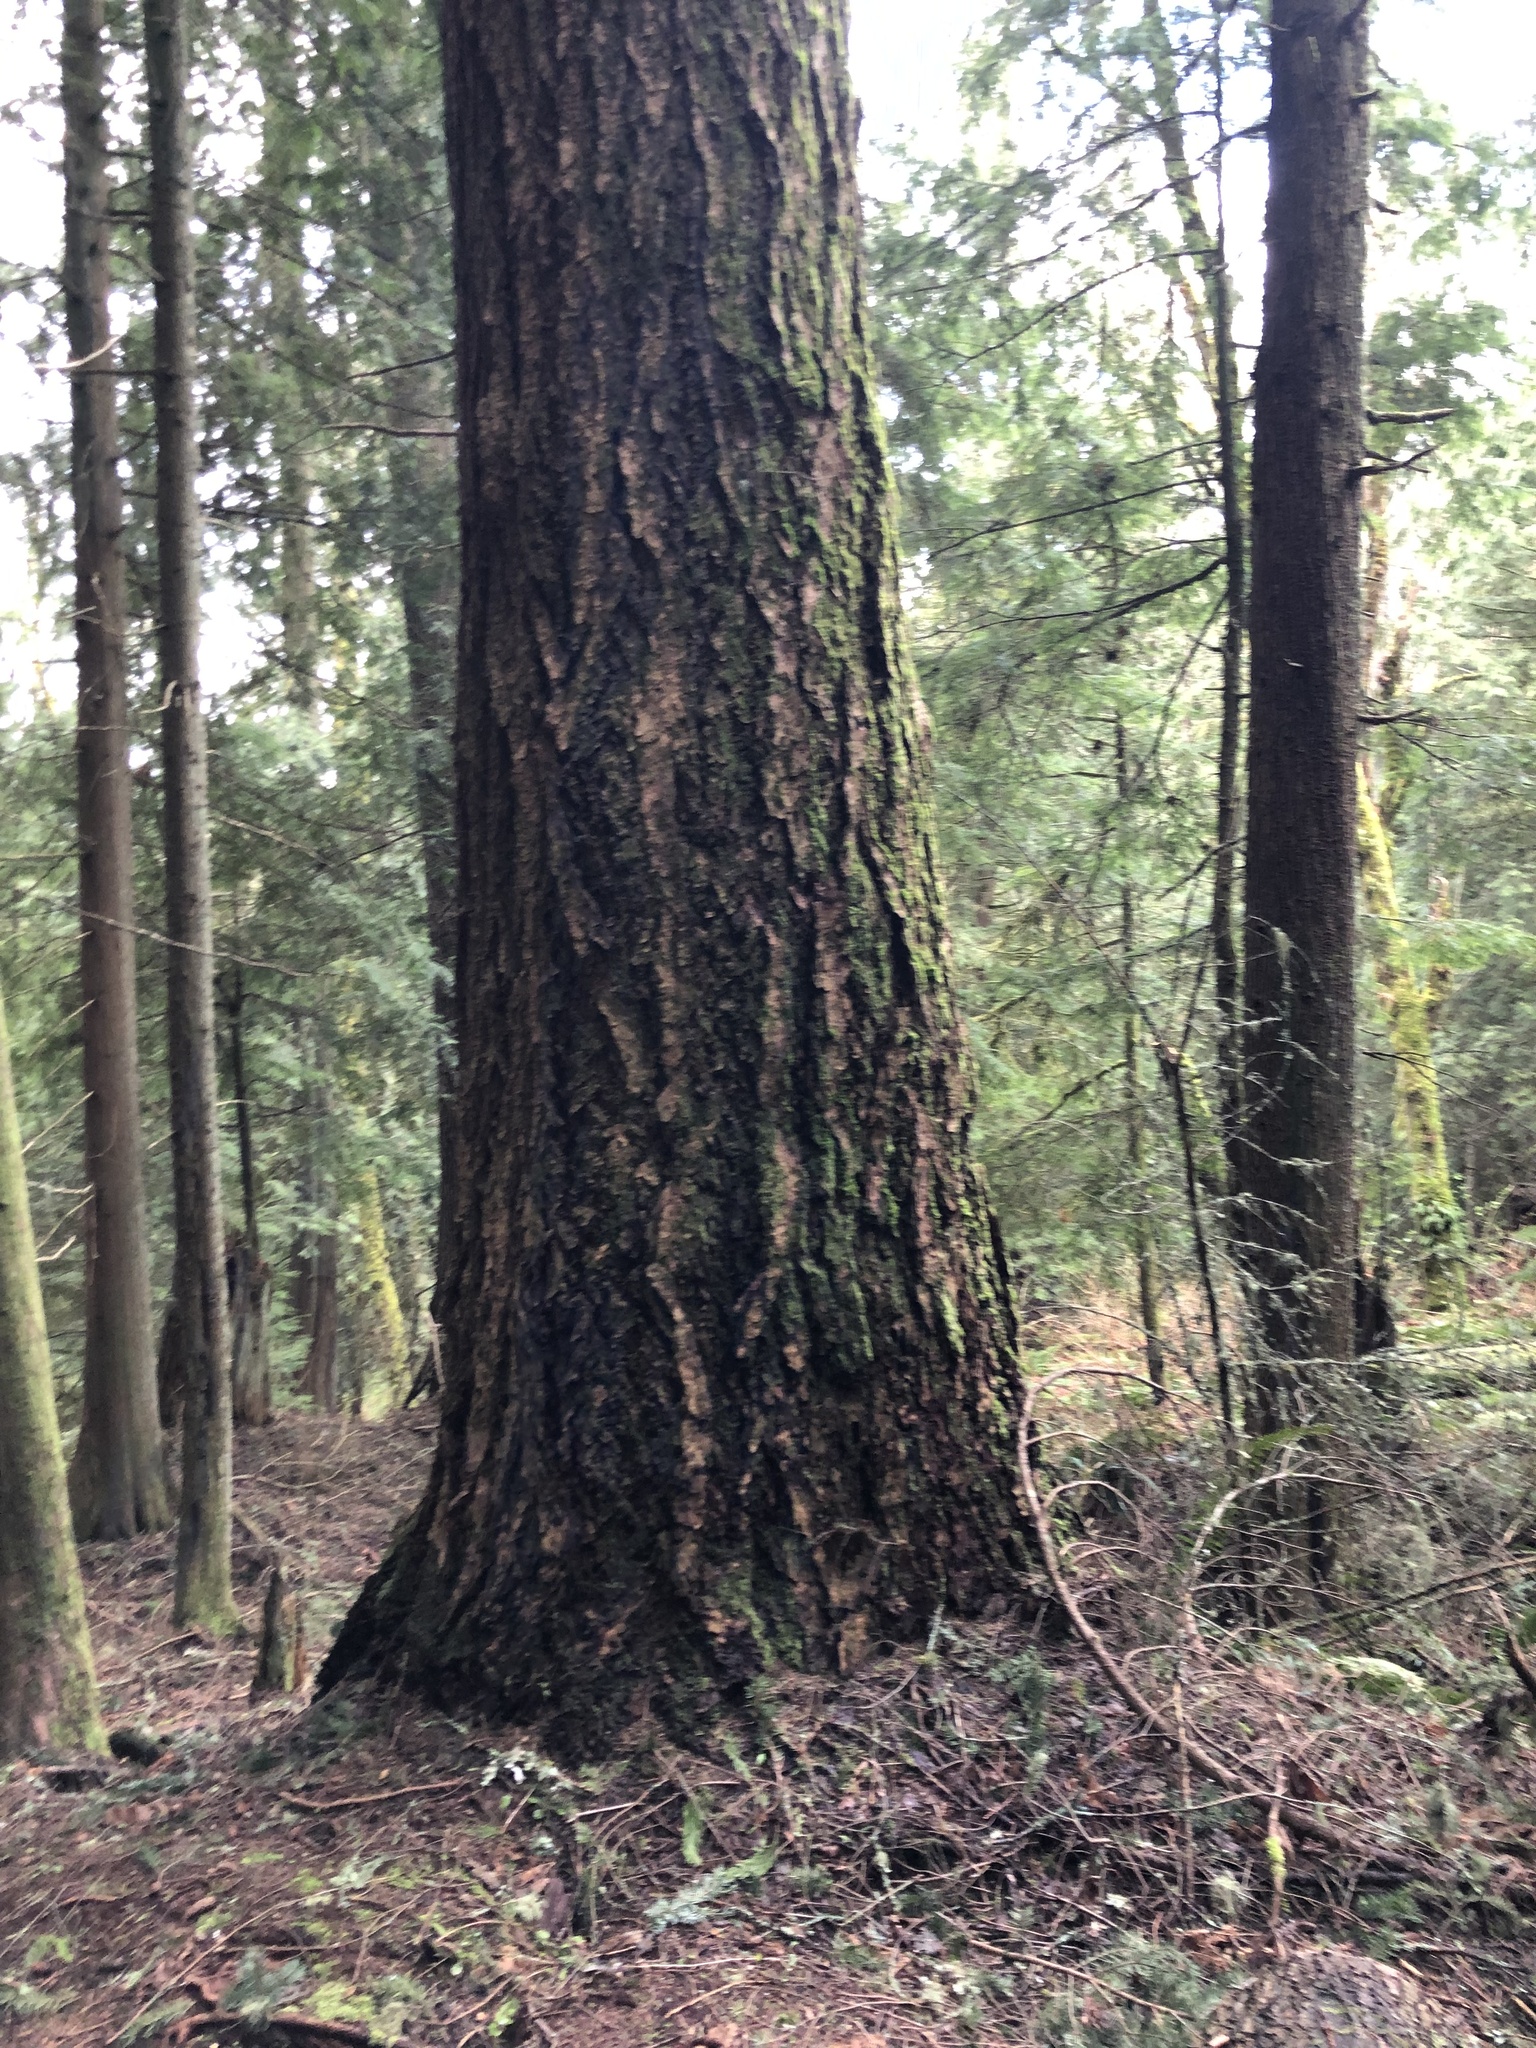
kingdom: Plantae
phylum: Tracheophyta
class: Pinopsida
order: Pinales
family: Pinaceae
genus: Pseudotsuga
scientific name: Pseudotsuga menziesii
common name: Douglas fir
